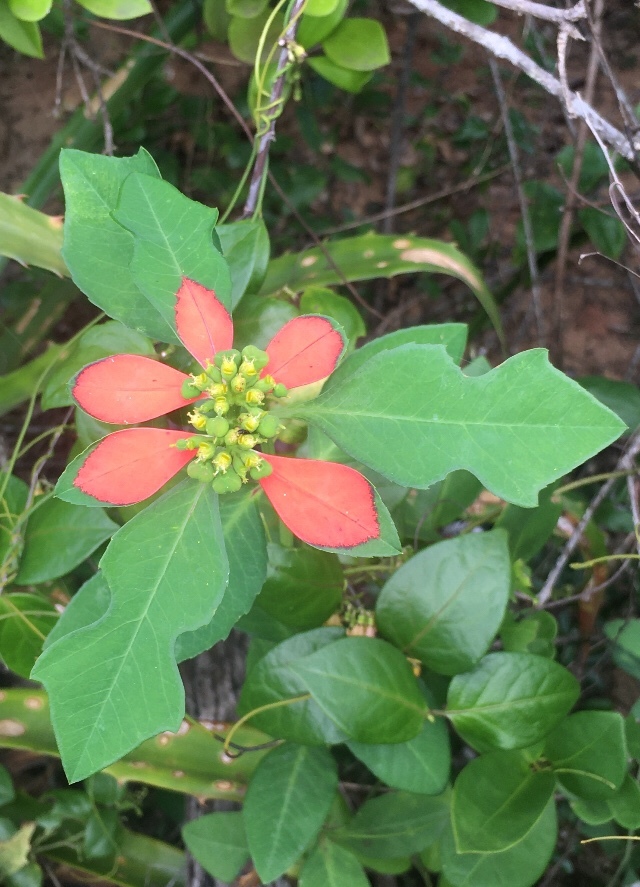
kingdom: Plantae
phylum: Tracheophyta
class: Magnoliopsida
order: Malpighiales
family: Euphorbiaceae
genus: Euphorbia
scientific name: Euphorbia heterophylla
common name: Mexican fireplant
